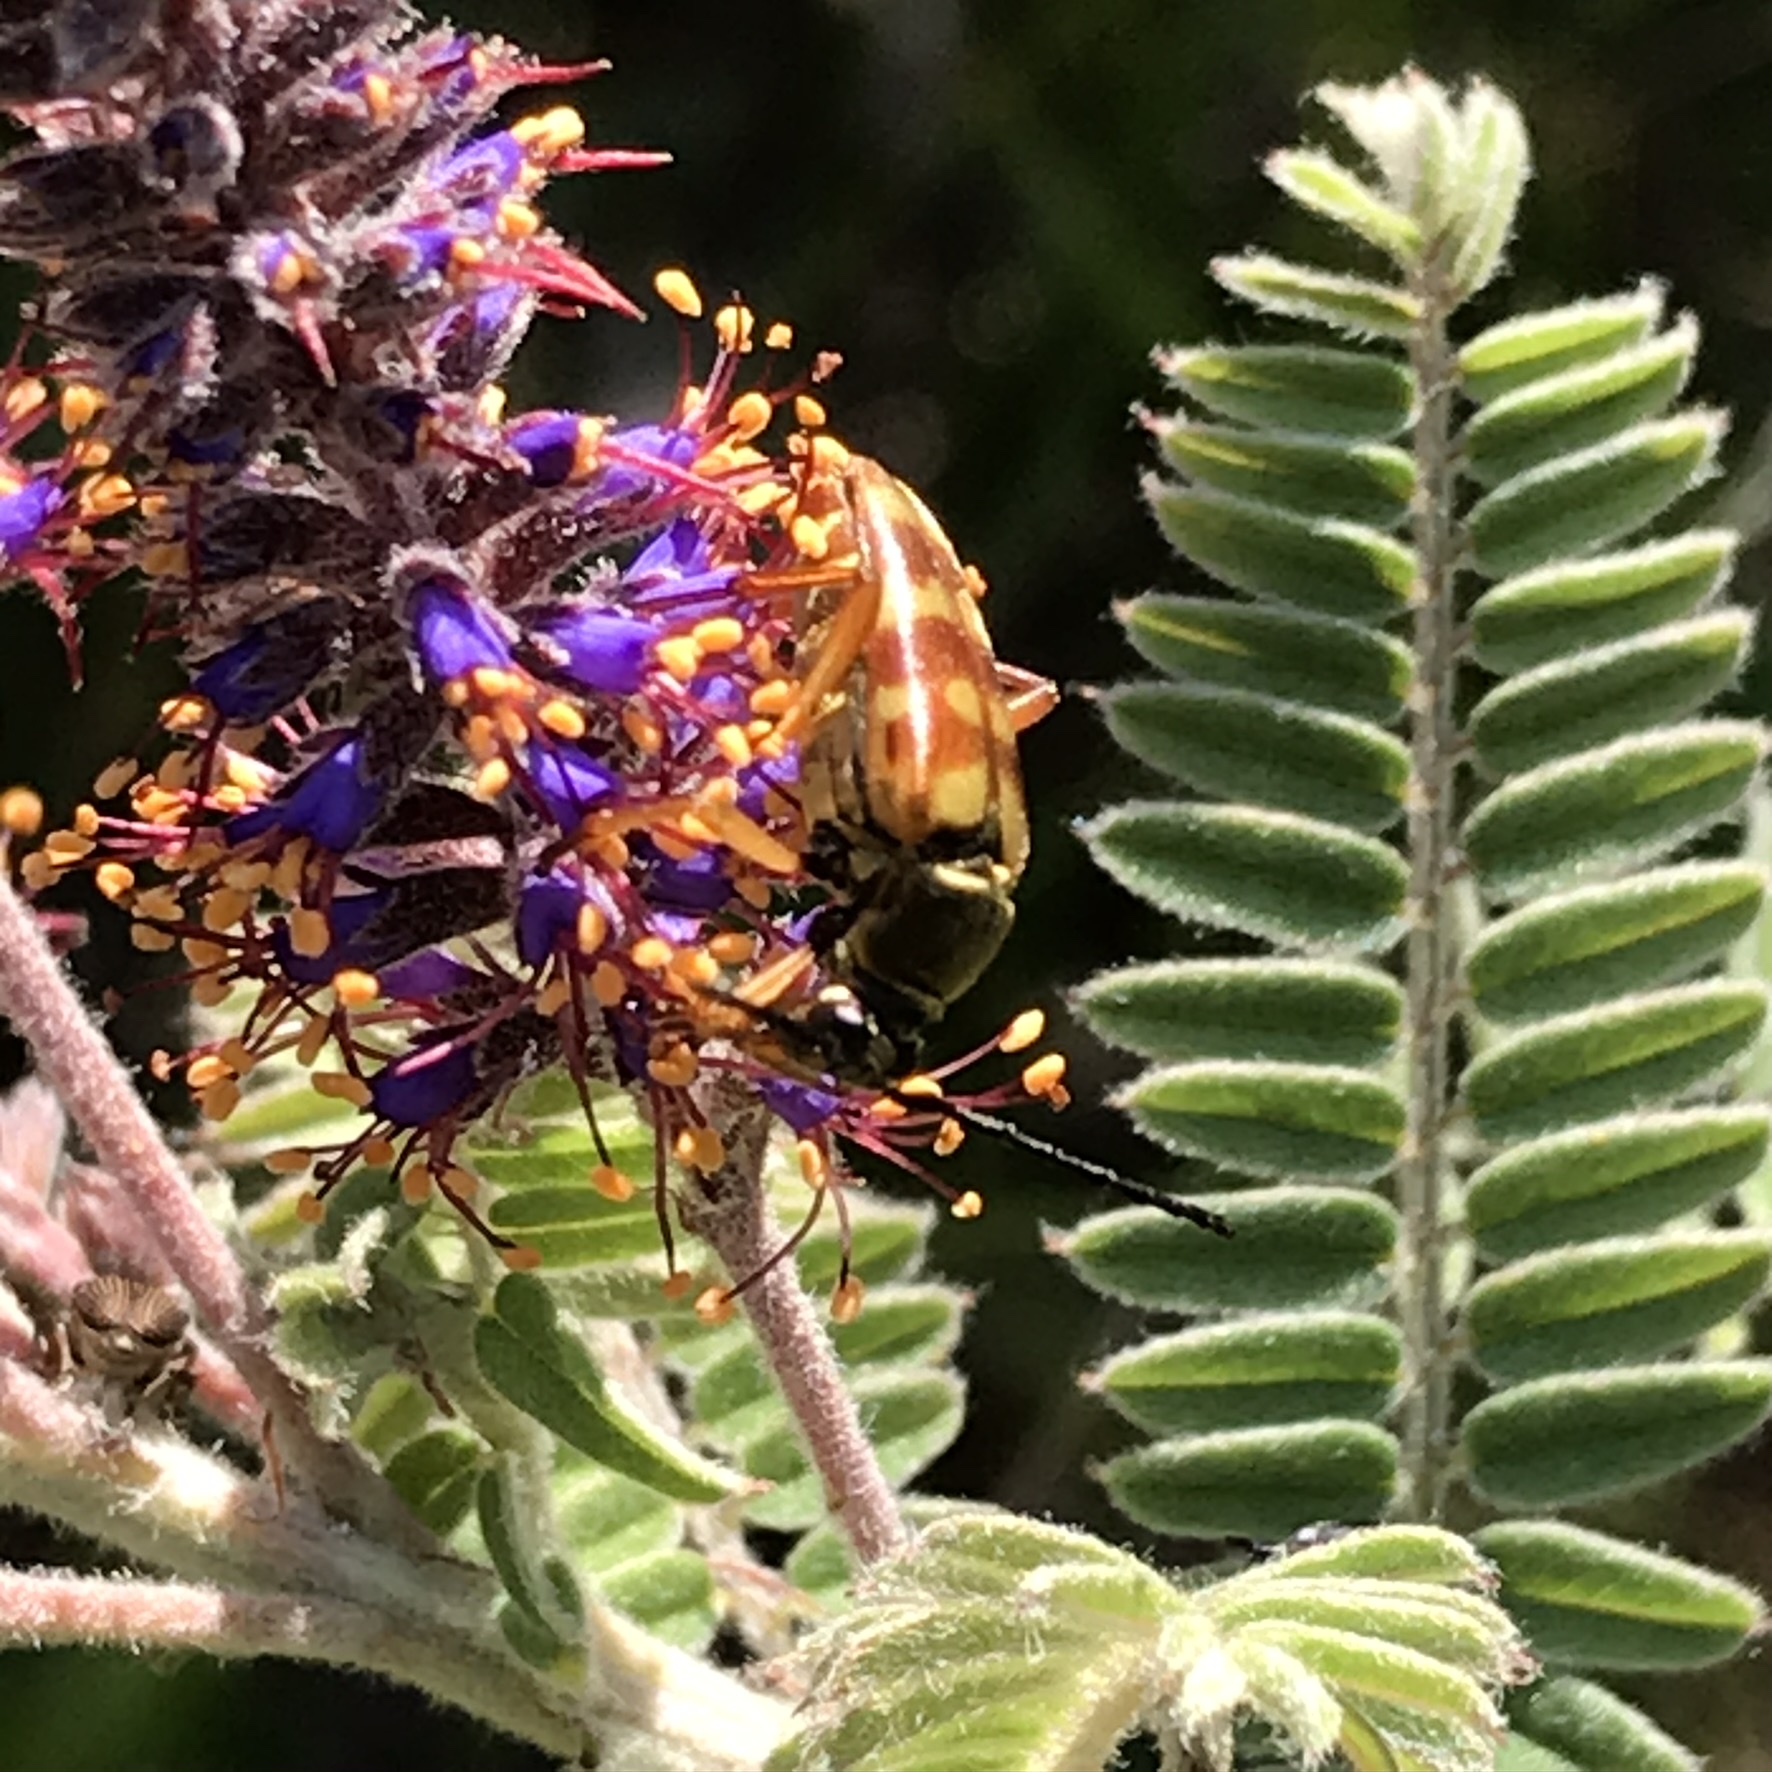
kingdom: Animalia
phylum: Arthropoda
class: Insecta
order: Coleoptera
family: Cerambycidae
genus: Typocerus
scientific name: Typocerus velutinus
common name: Banded longhorn beetle
